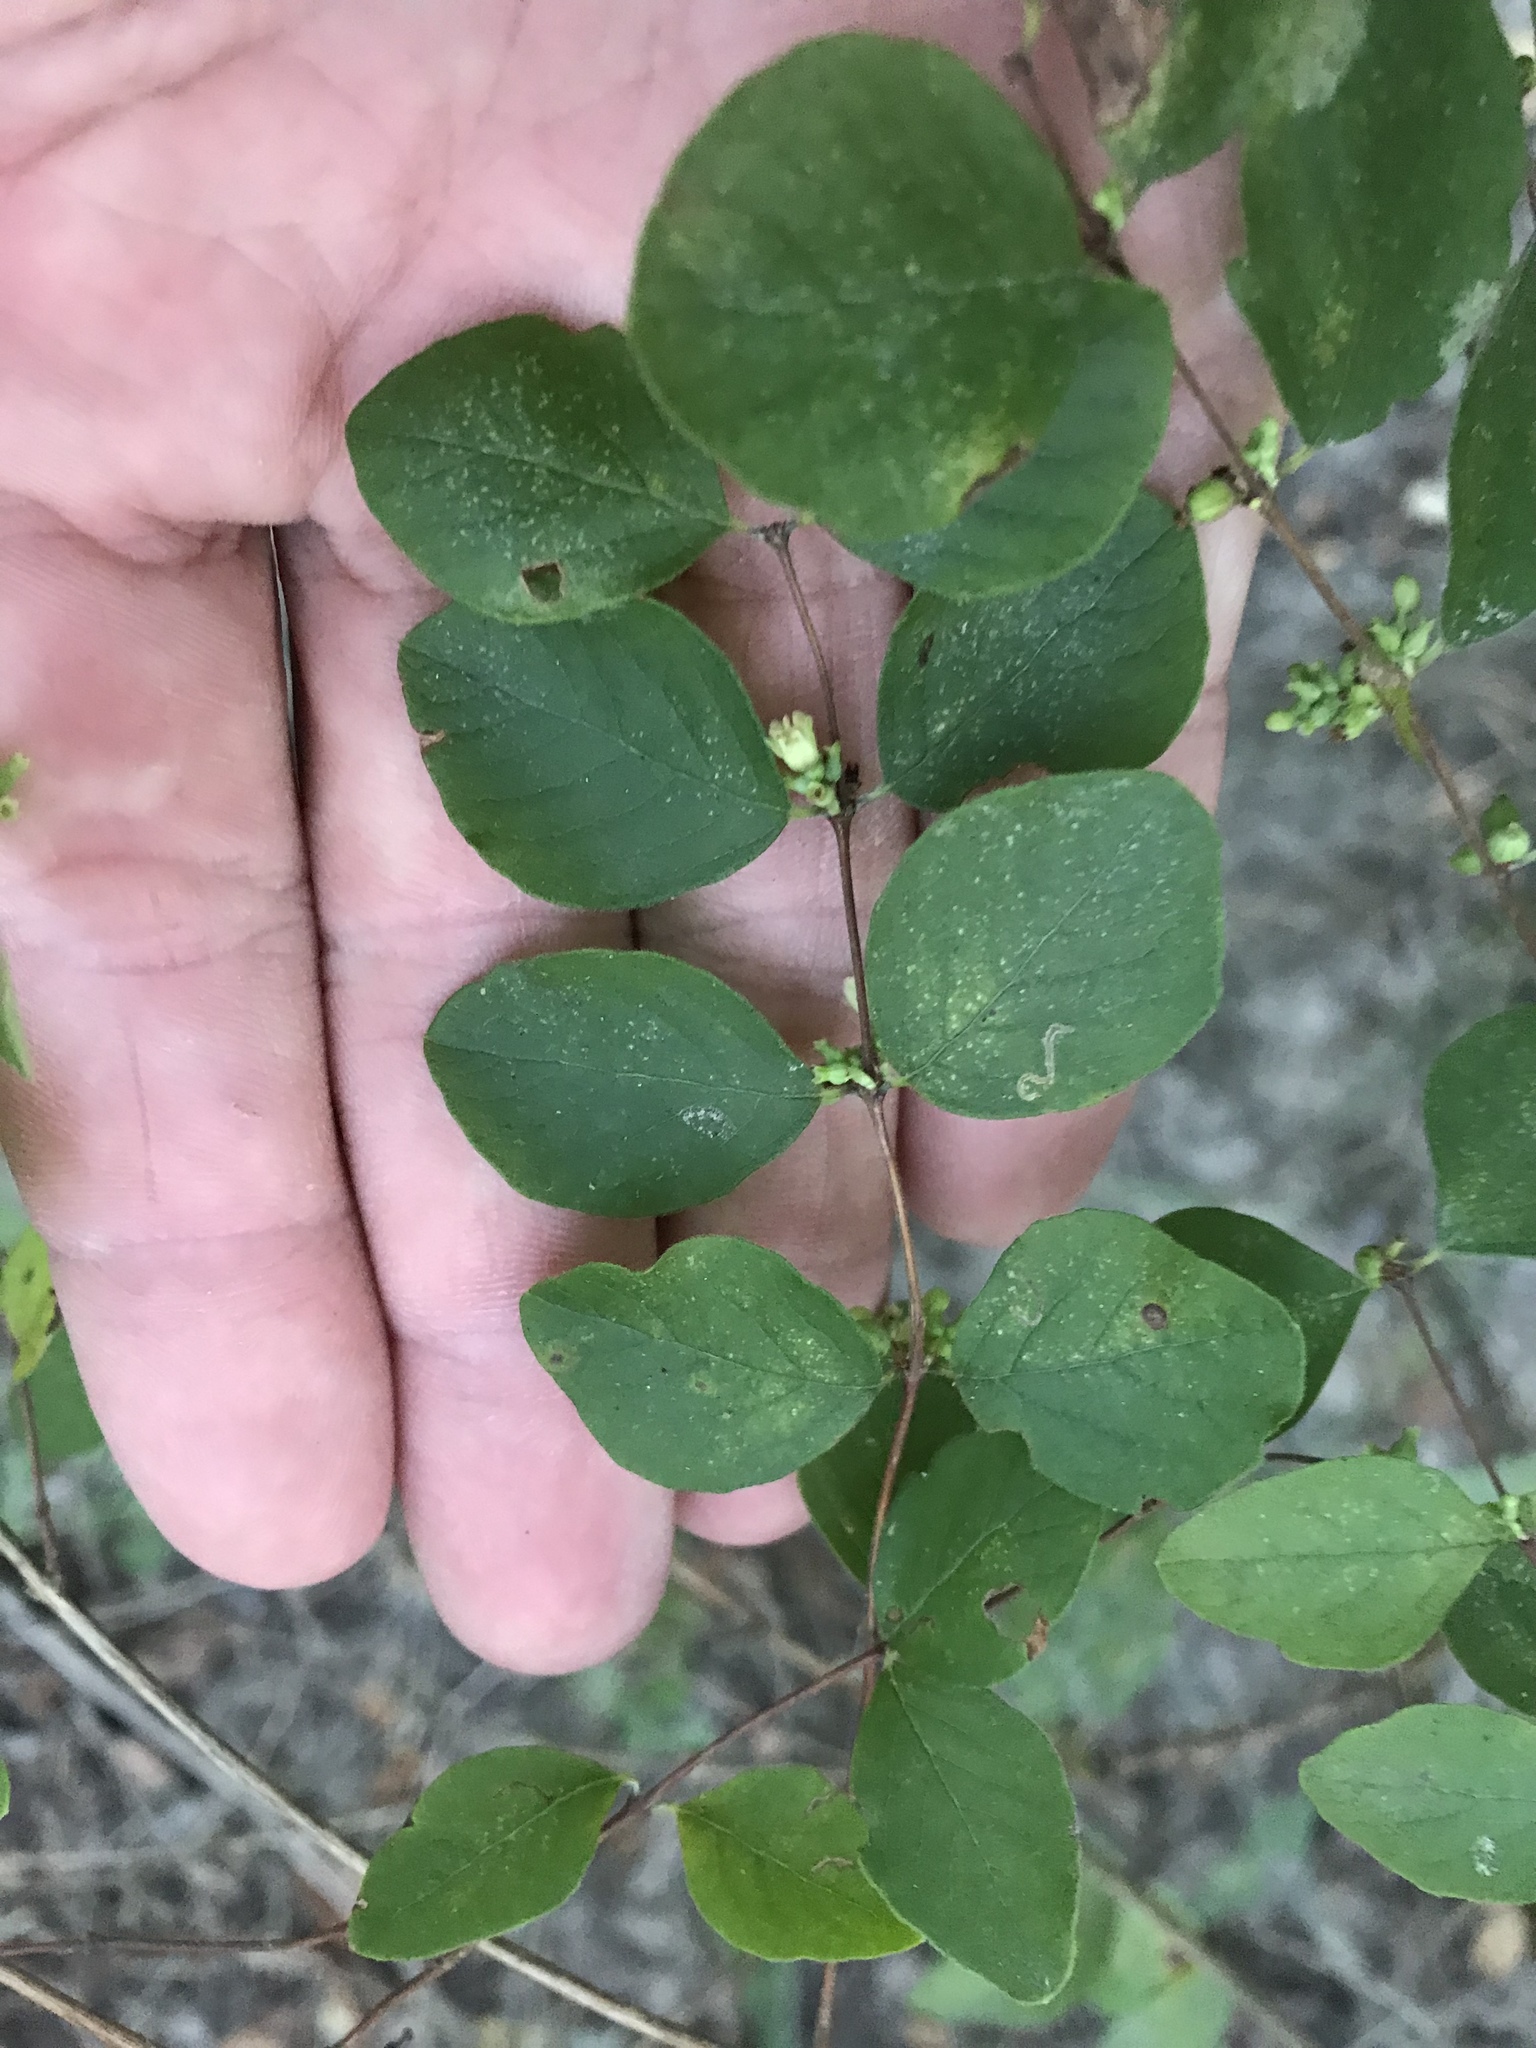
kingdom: Plantae
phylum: Tracheophyta
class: Magnoliopsida
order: Dipsacales
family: Caprifoliaceae
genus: Symphoricarpos
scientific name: Symphoricarpos orbiculatus
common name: Coralberry
